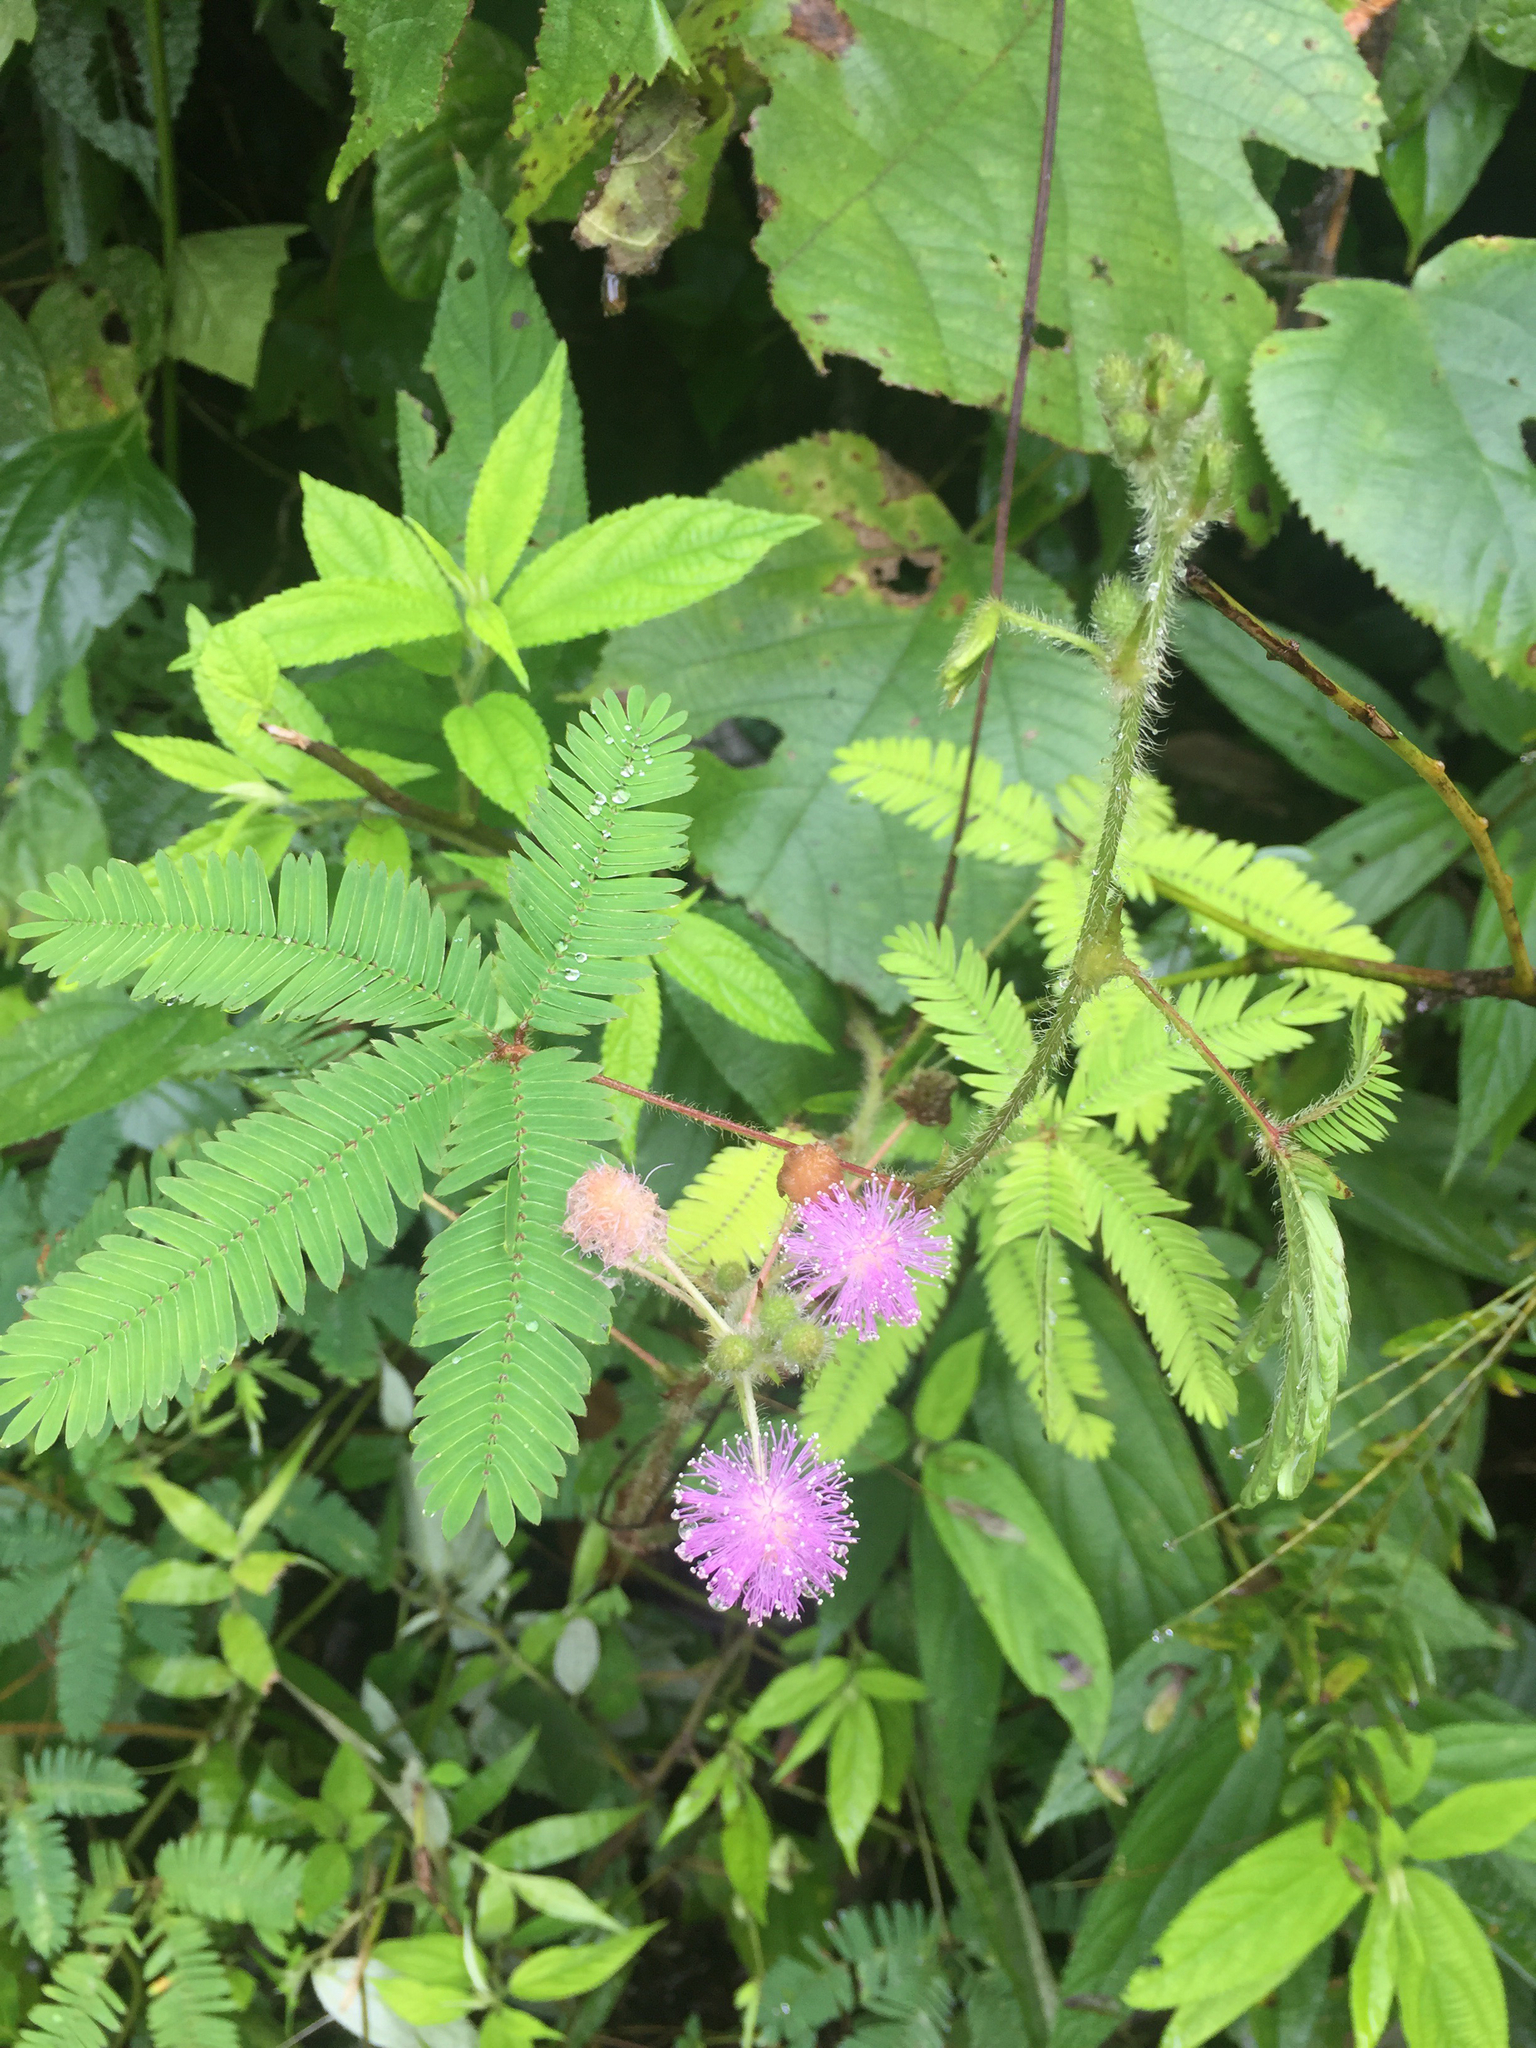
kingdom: Plantae
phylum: Tracheophyta
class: Magnoliopsida
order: Fabales
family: Fabaceae
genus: Mimosa
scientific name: Mimosa pudica
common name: Sensitive plant
